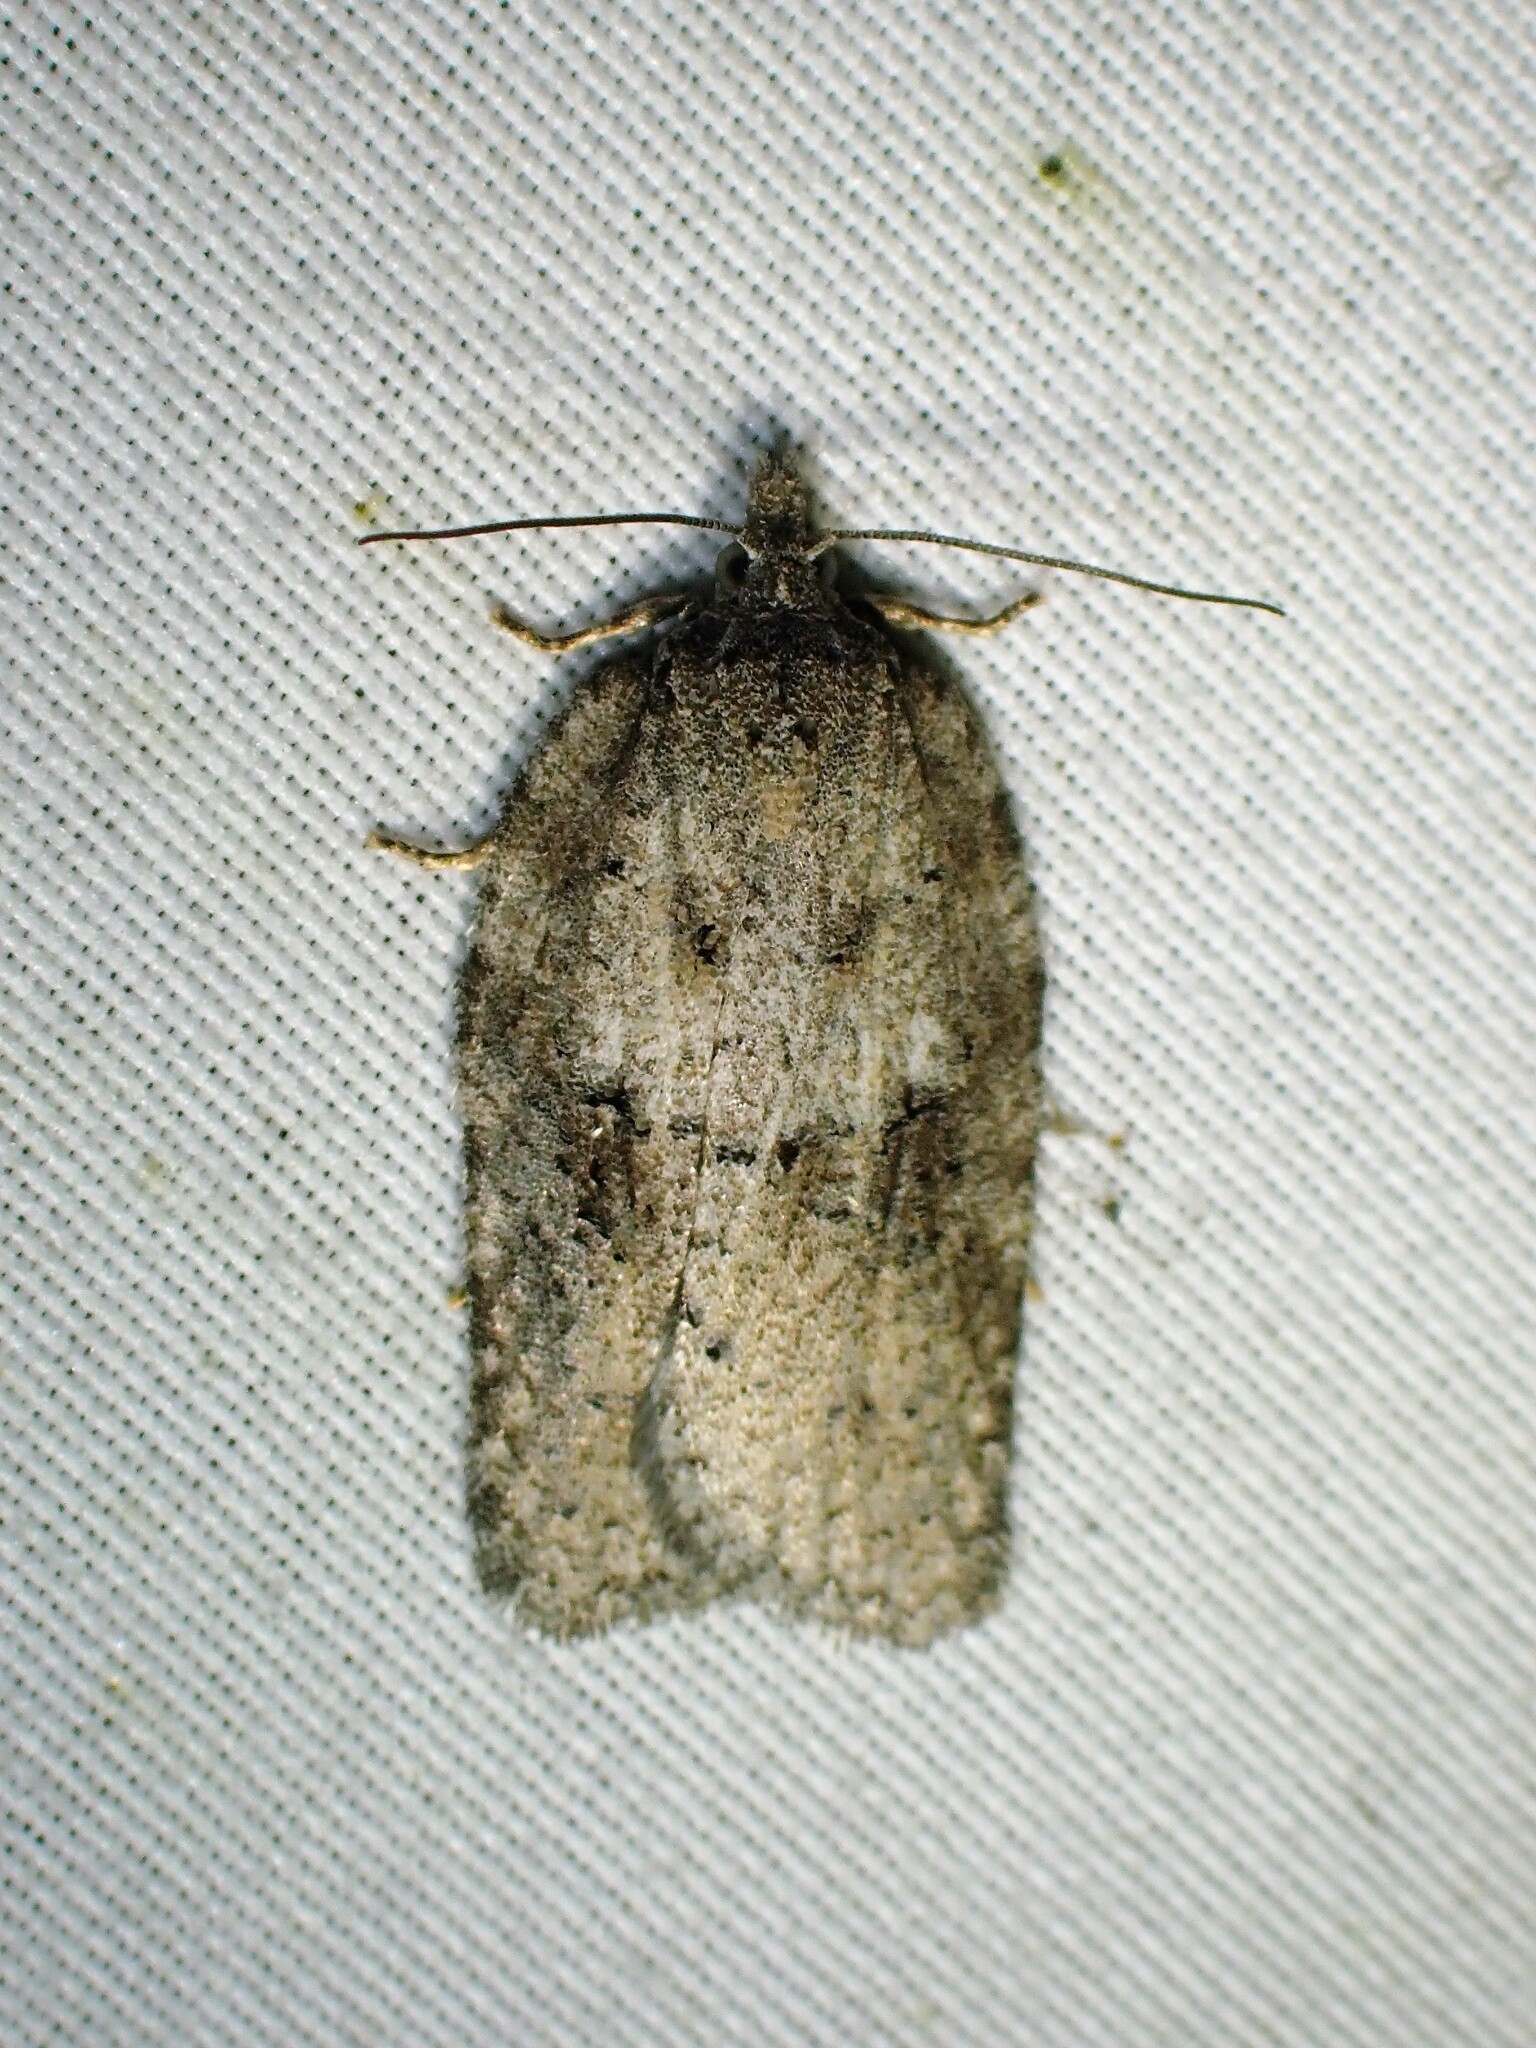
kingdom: Animalia
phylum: Arthropoda
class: Insecta
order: Lepidoptera
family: Tortricidae
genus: Acleris
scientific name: Acleris nigrolinea
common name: Black-lined acleris
